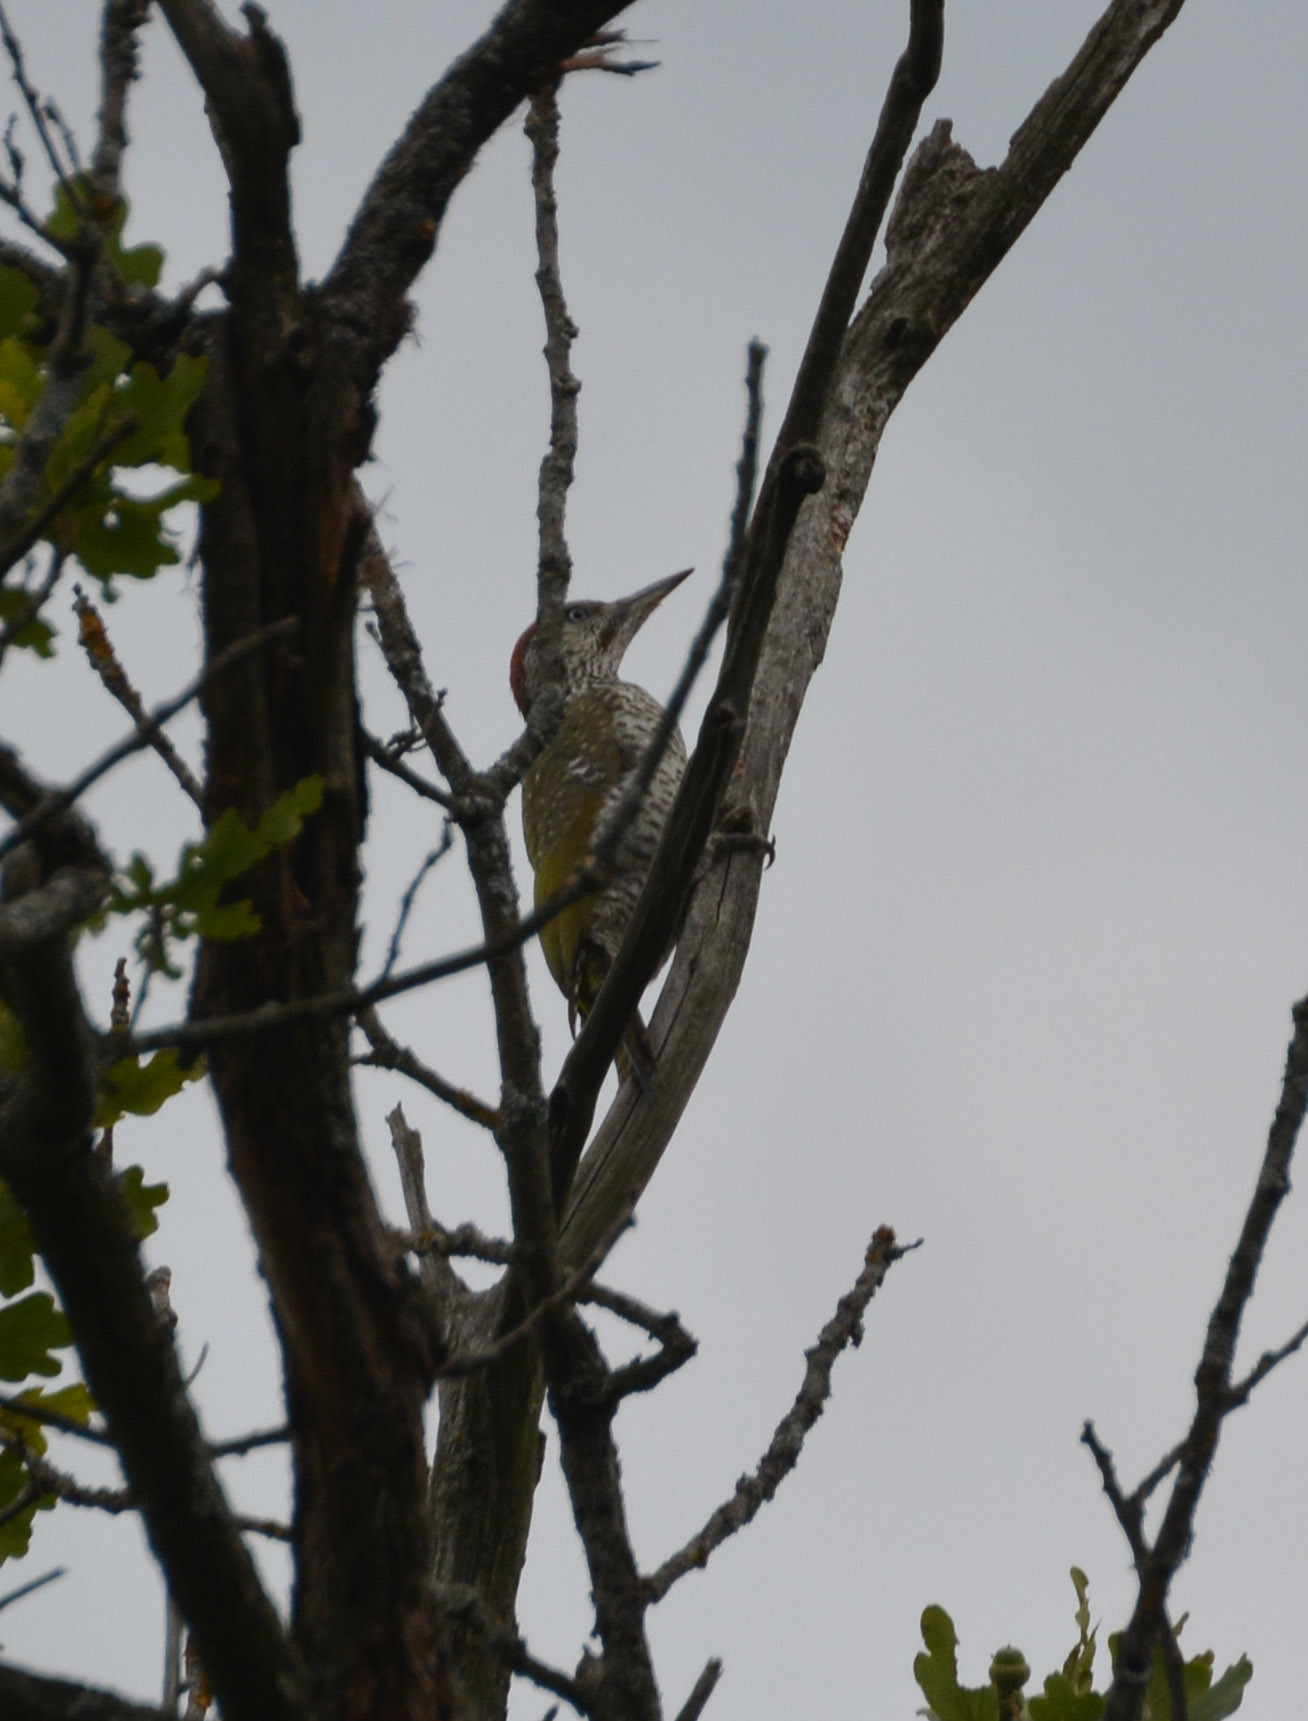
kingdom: Animalia
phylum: Chordata
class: Aves
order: Piciformes
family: Picidae
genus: Picus
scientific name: Picus viridis
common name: European green woodpecker
